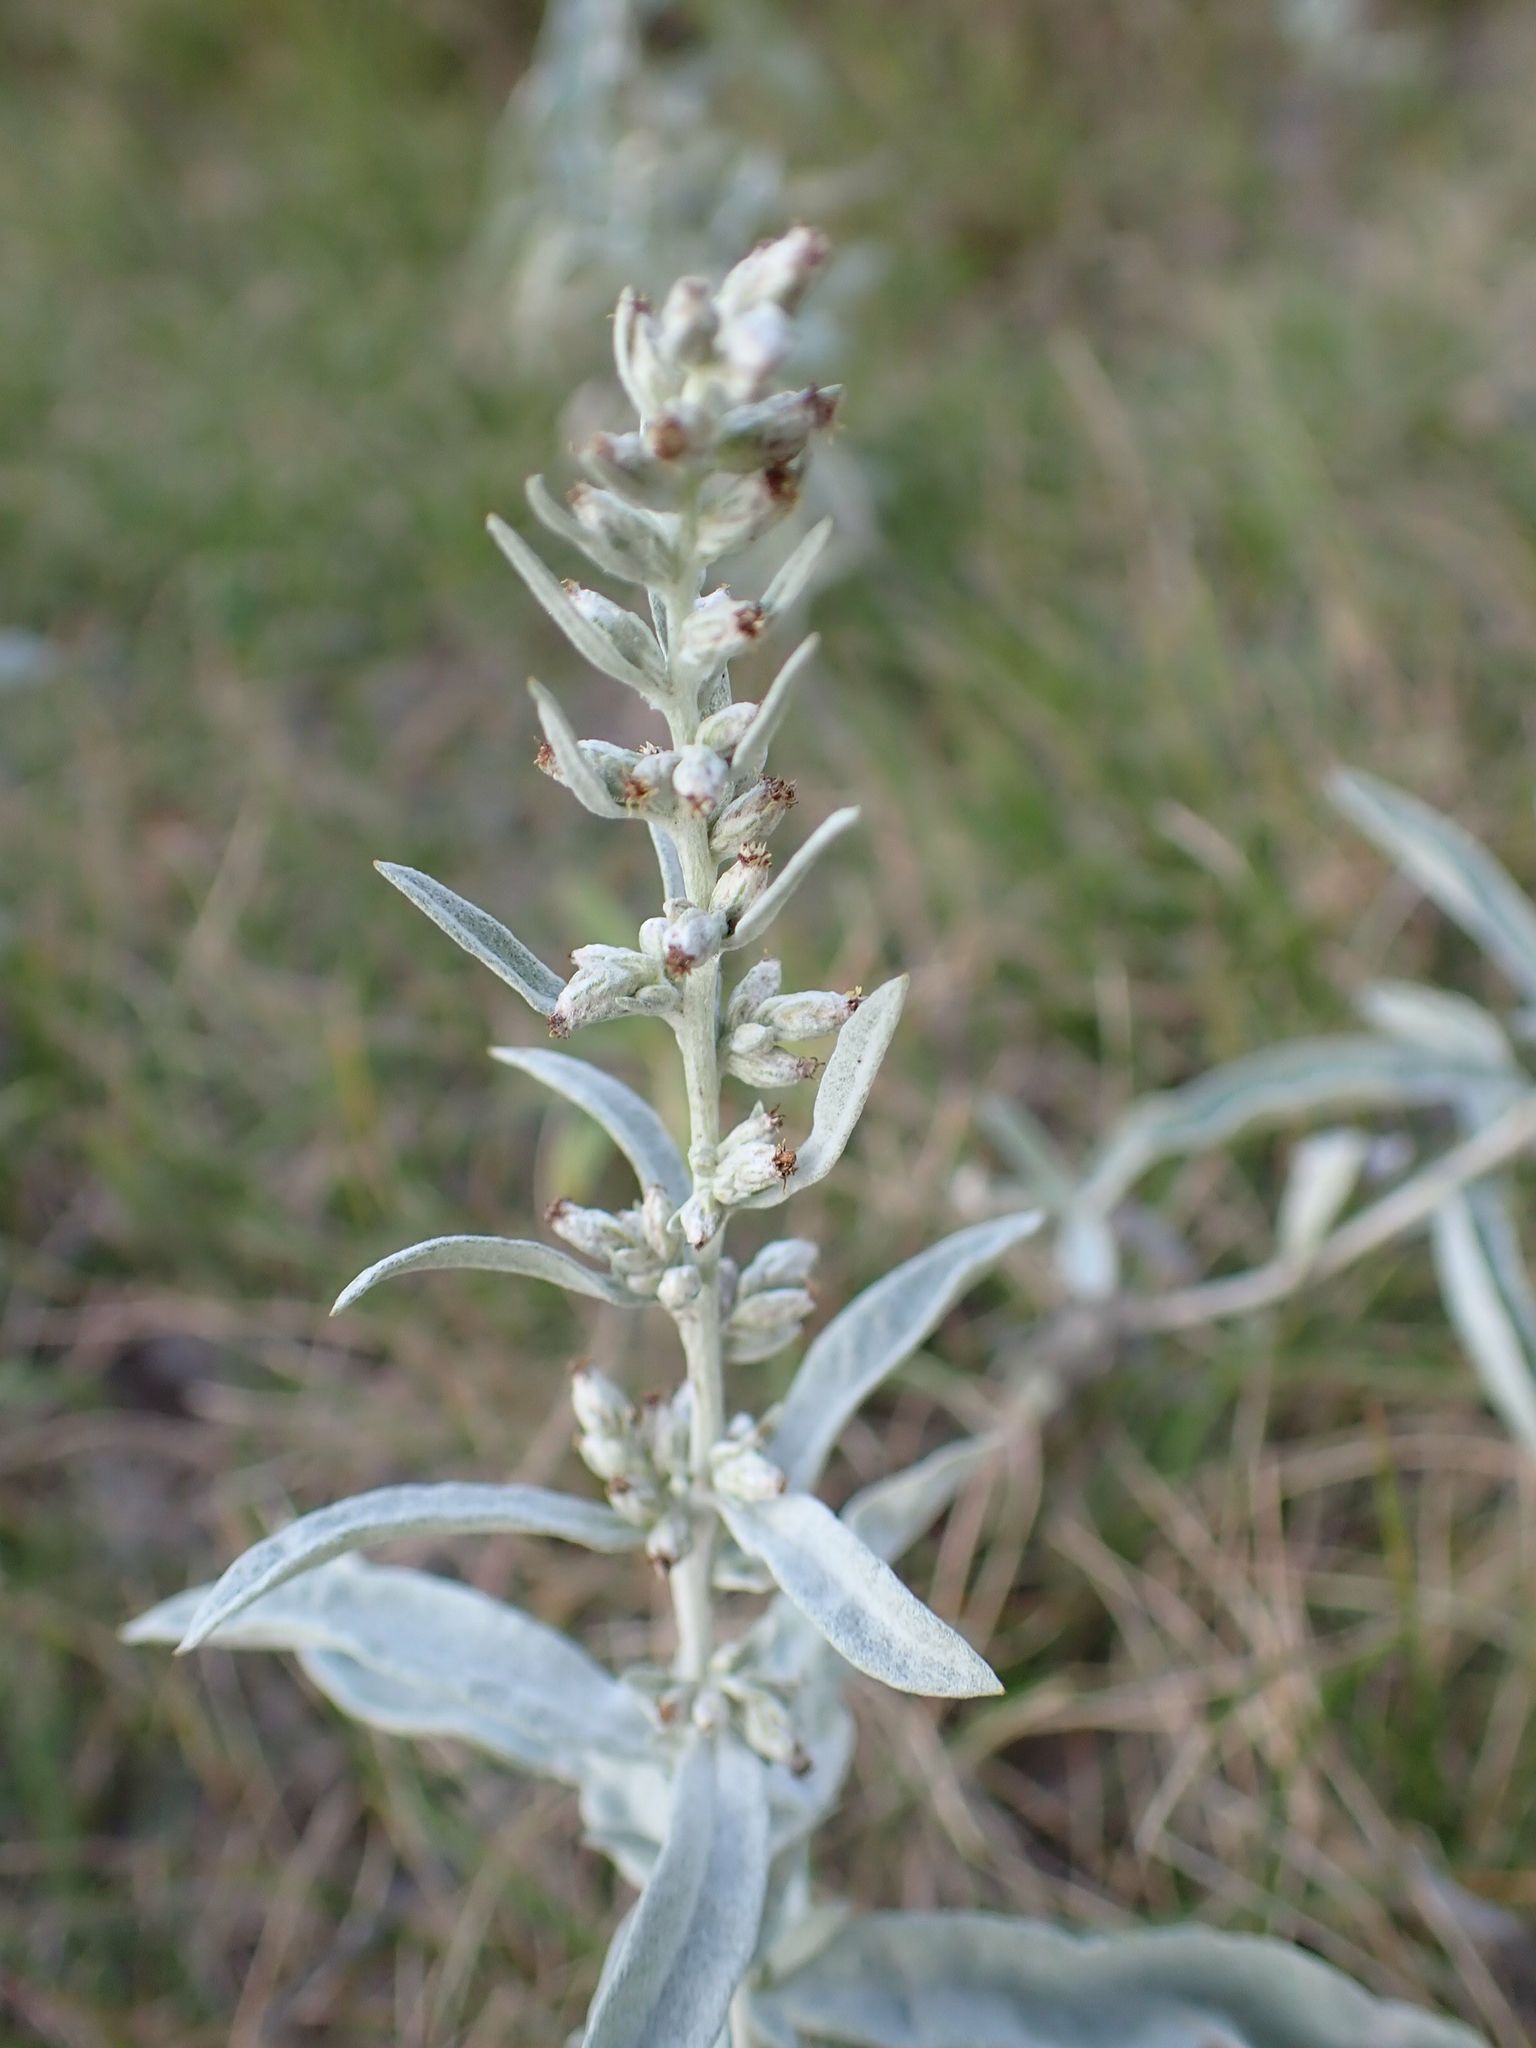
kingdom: Plantae
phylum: Tracheophyta
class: Magnoliopsida
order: Asterales
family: Asteraceae
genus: Artemisia
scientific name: Artemisia ludoviciana
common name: Western mugwort
